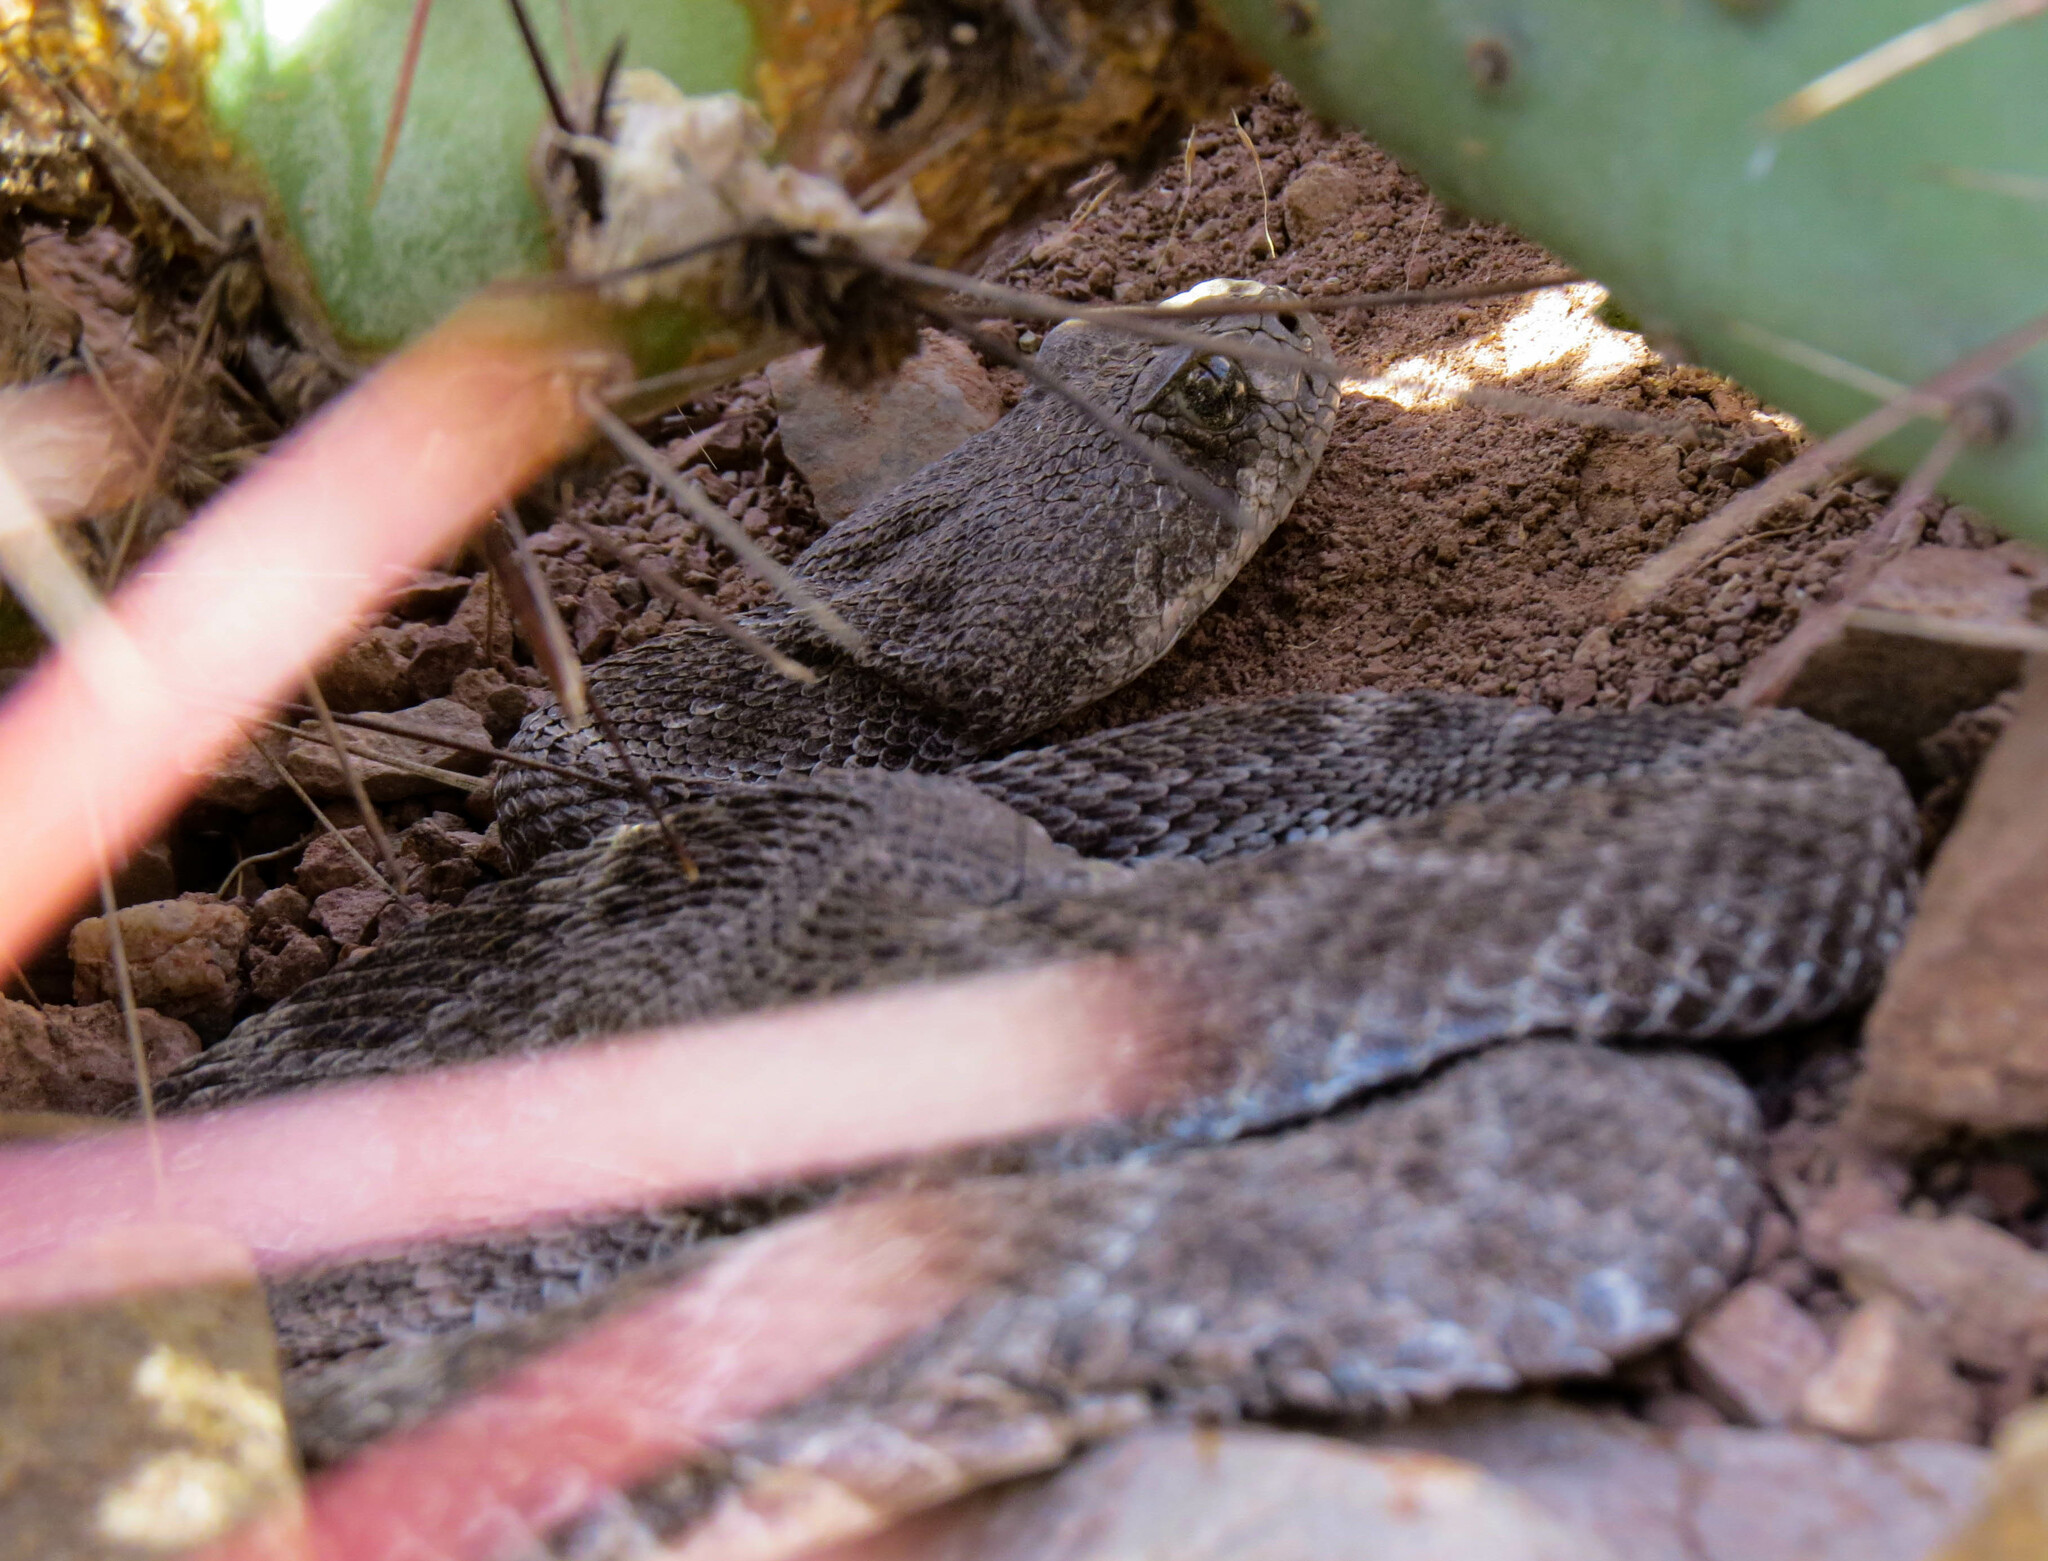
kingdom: Animalia
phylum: Chordata
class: Squamata
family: Viperidae
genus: Crotalus
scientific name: Crotalus atrox
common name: Western diamond-backed rattlesnake
